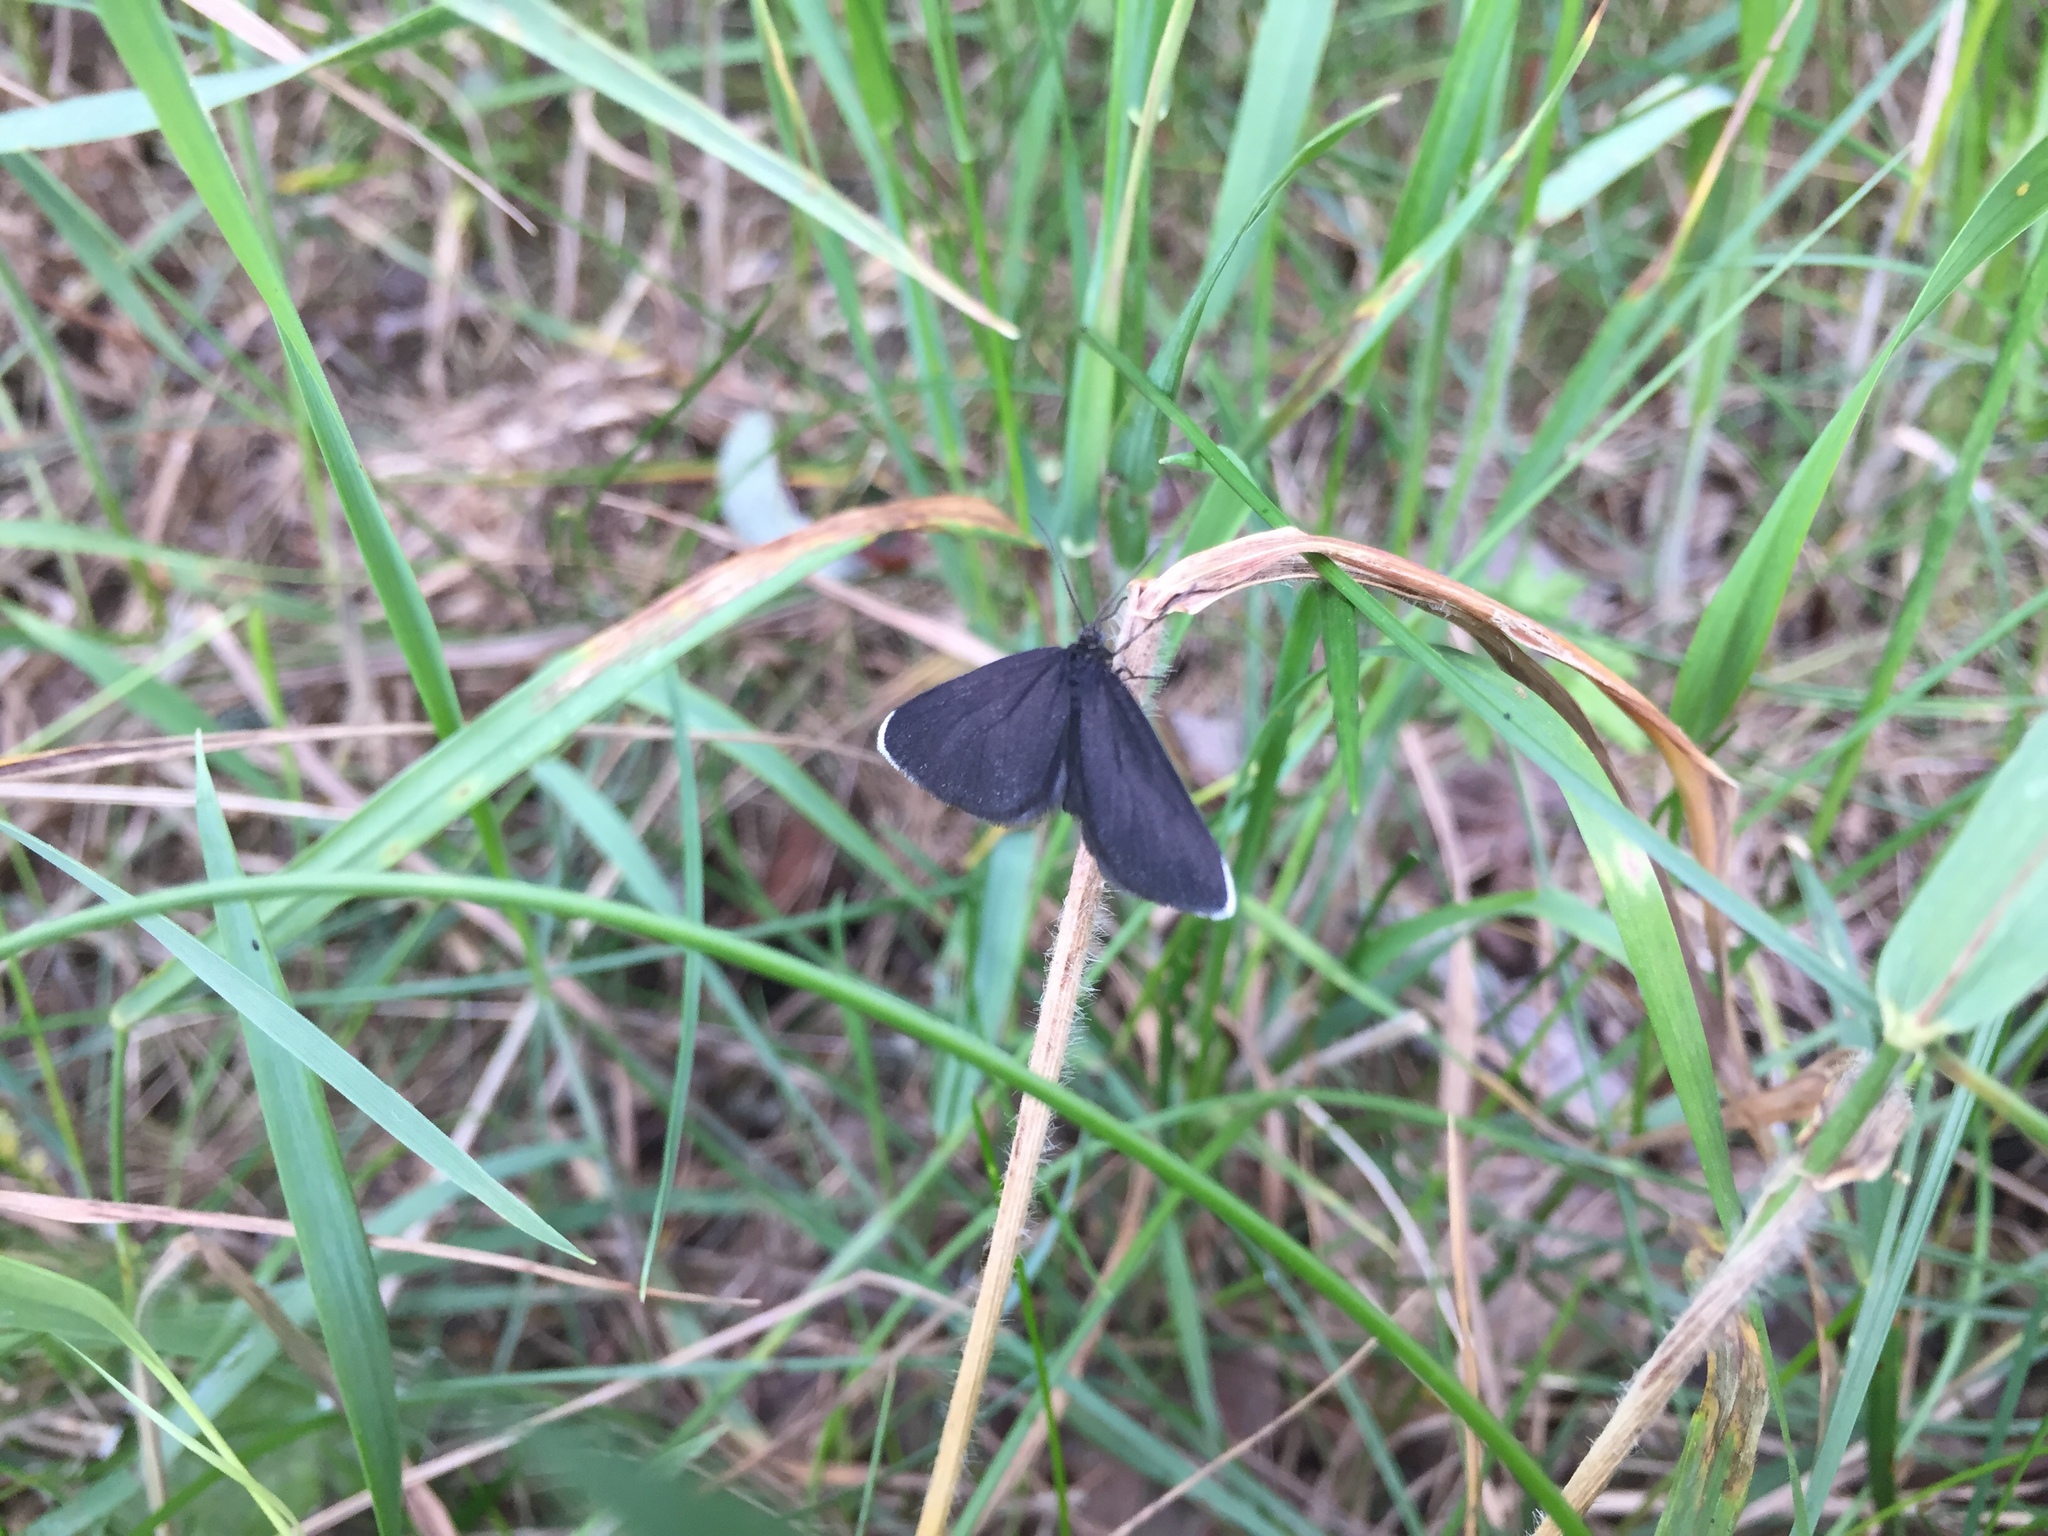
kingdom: Animalia
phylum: Arthropoda
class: Insecta
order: Lepidoptera
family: Geometridae
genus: Odezia
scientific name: Odezia atrata
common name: Chimney sweeper
